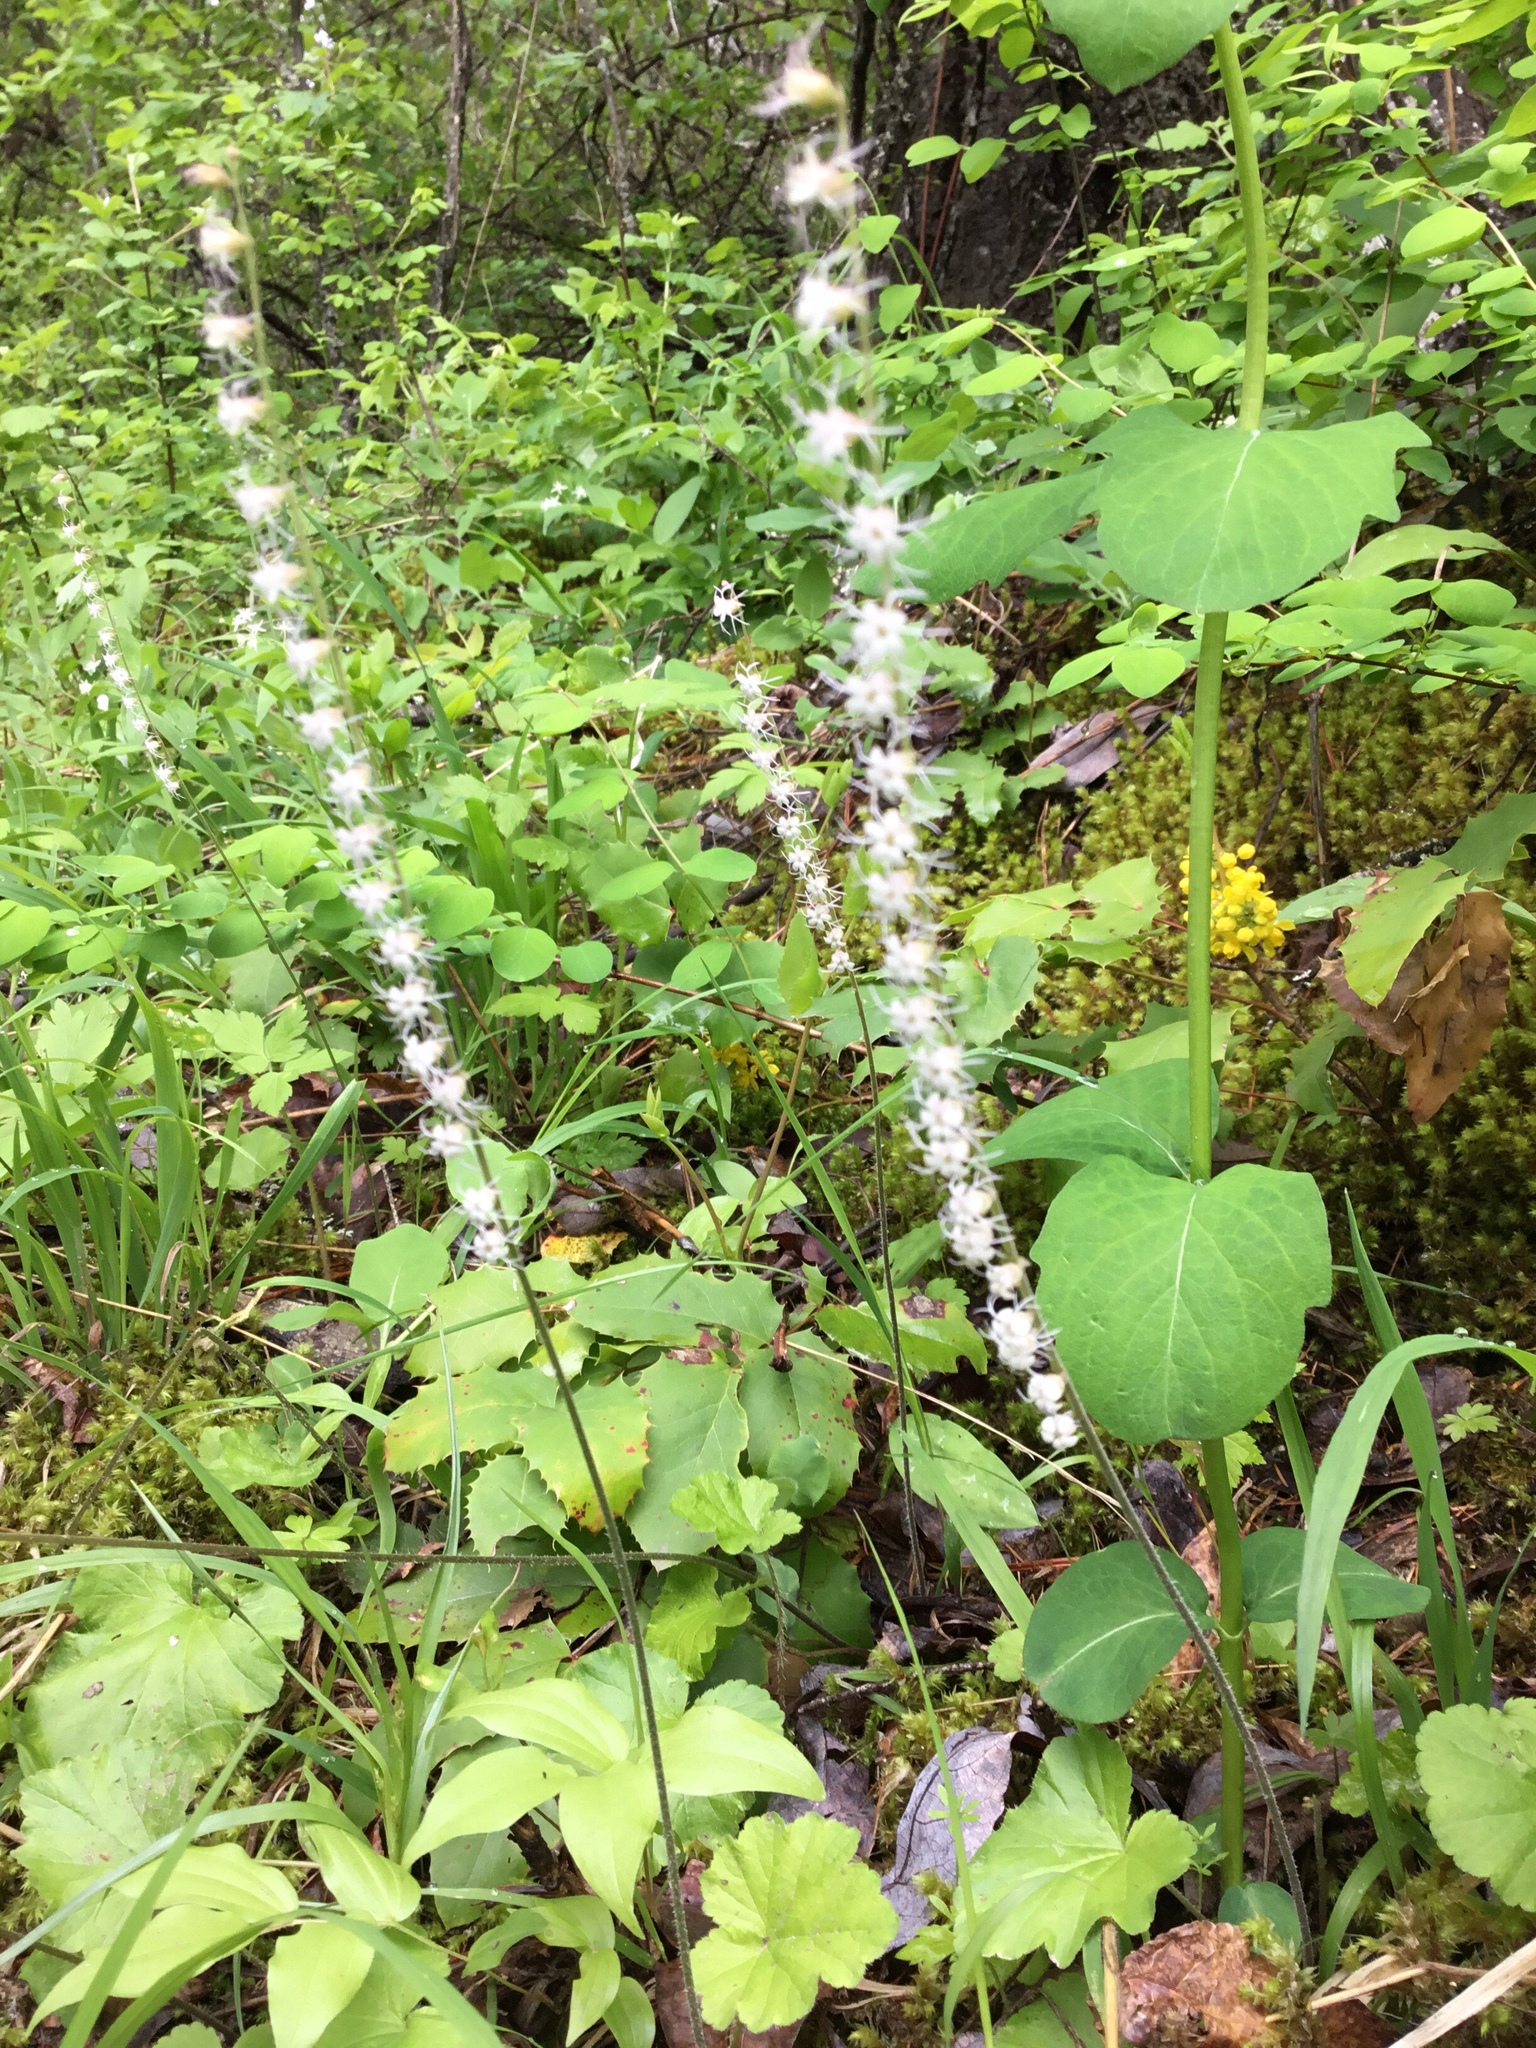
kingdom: Plantae
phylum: Tracheophyta
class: Magnoliopsida
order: Saxifragales
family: Saxifragaceae
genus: Ozomelis
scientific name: Ozomelis stauropetala
